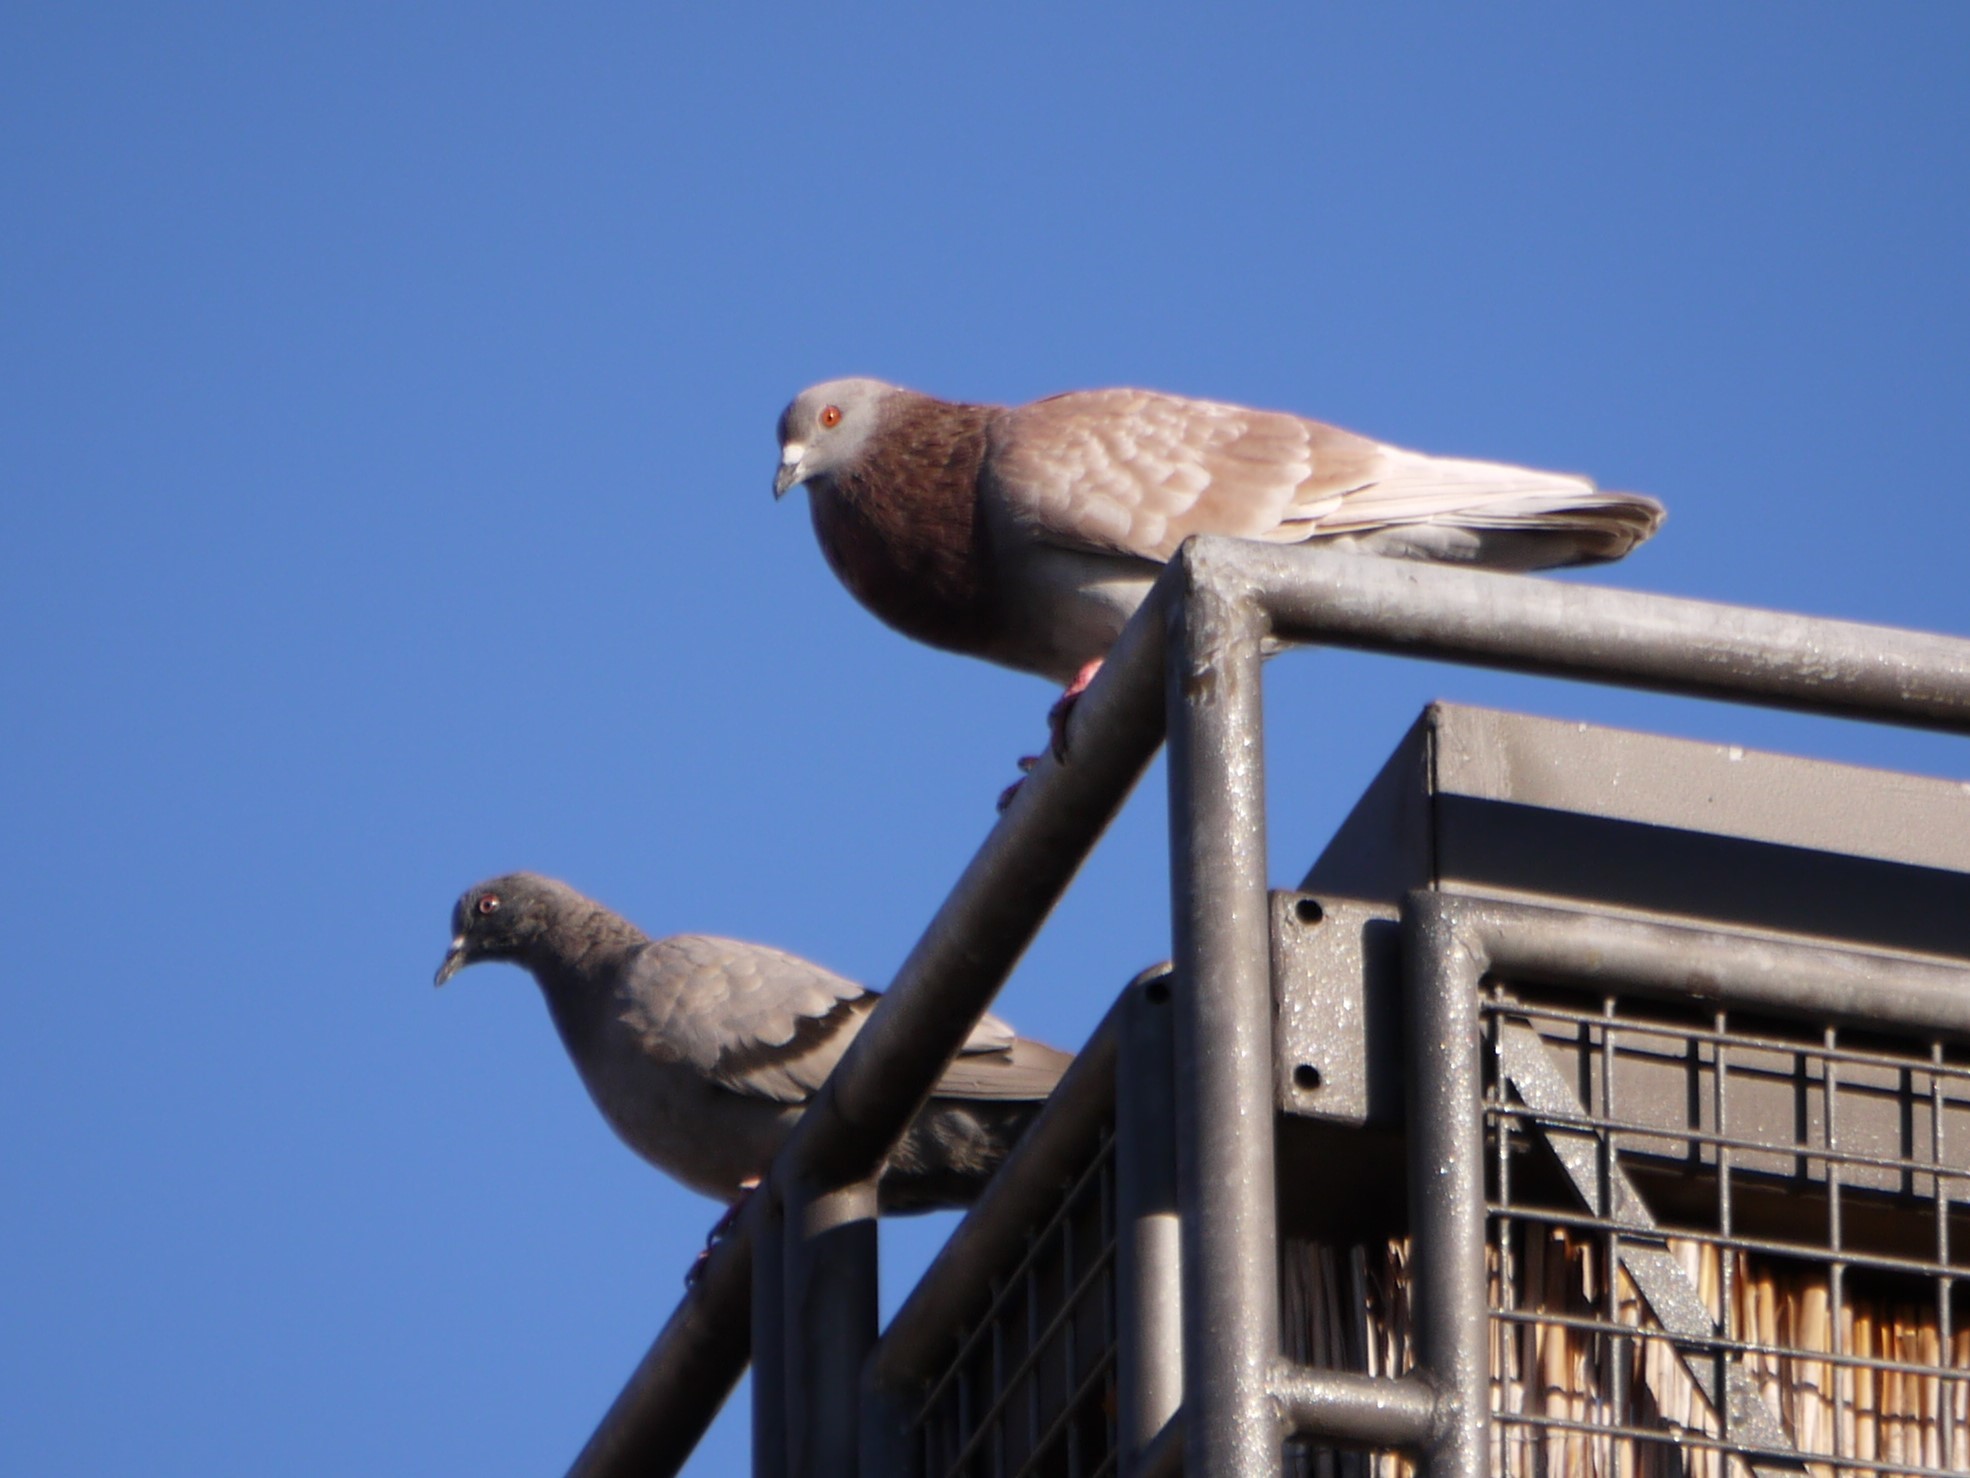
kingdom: Animalia
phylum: Chordata
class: Aves
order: Columbiformes
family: Columbidae
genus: Columba
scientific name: Columba livia
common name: Rock pigeon
